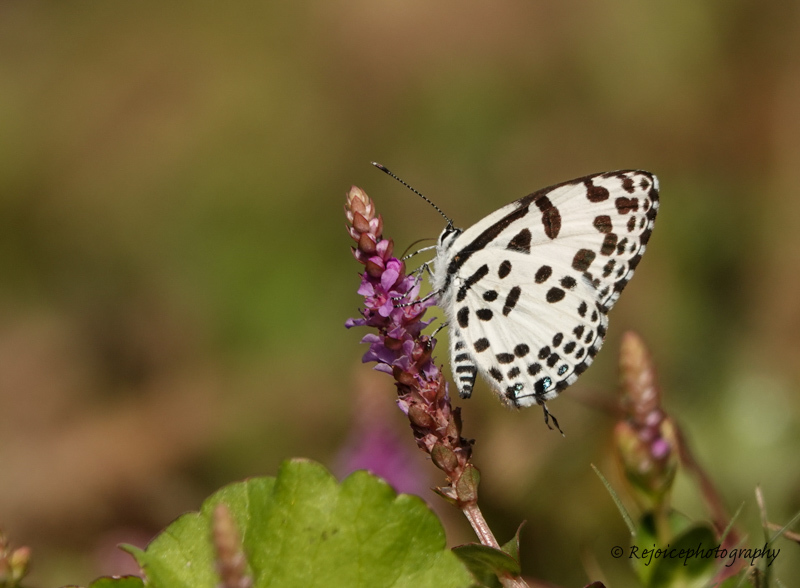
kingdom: Animalia
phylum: Arthropoda
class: Insecta
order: Lepidoptera
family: Lycaenidae
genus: Castalius
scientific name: Castalius rosimon
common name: Common pierrot
